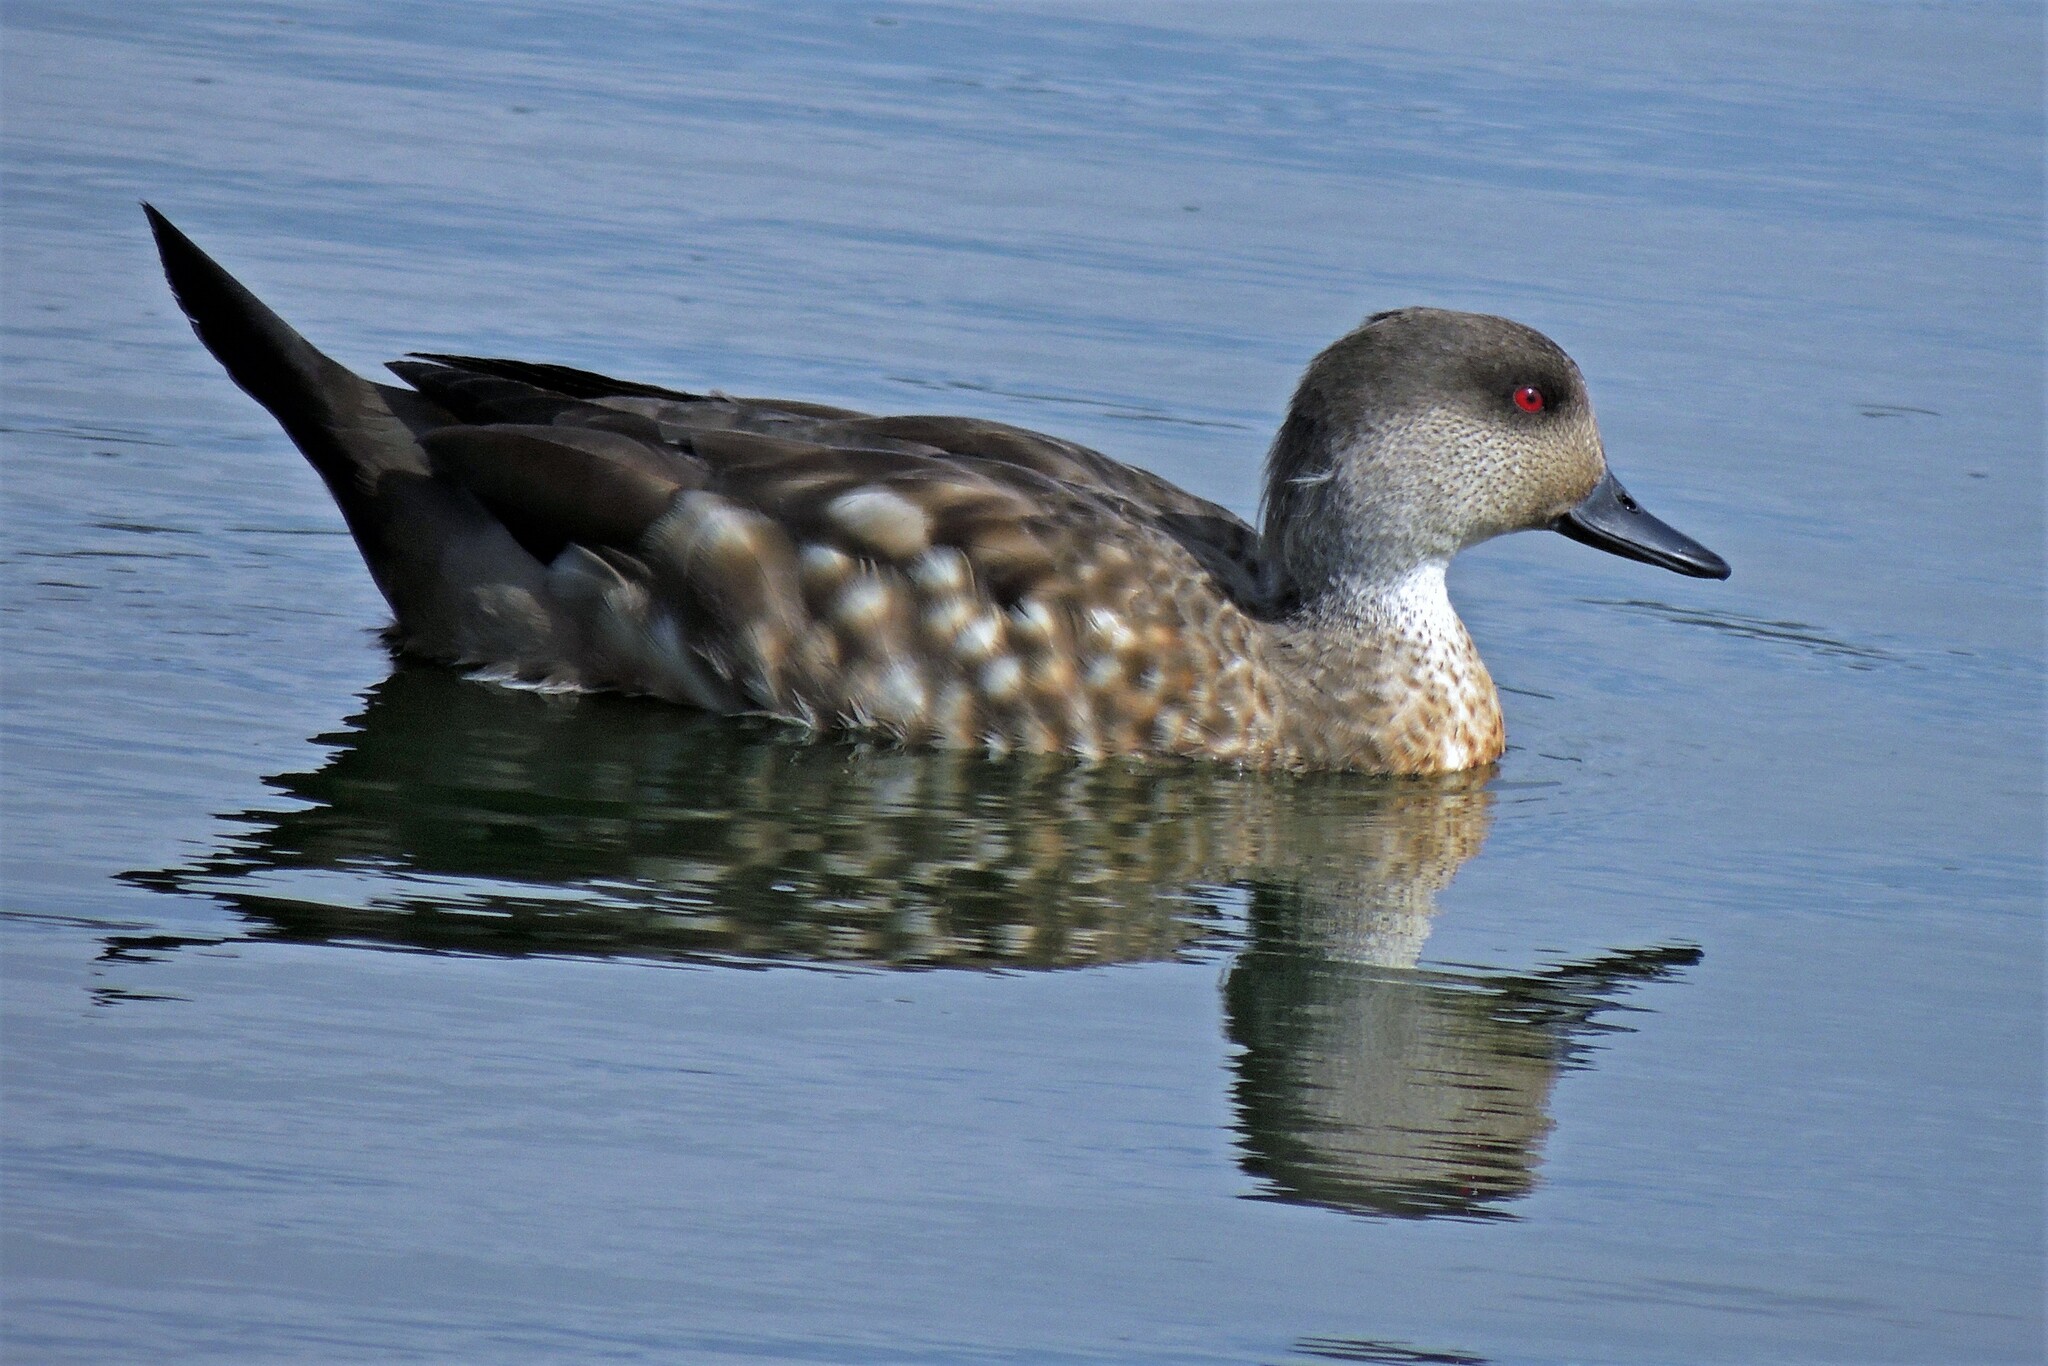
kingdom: Animalia
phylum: Chordata
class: Aves
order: Anseriformes
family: Anatidae
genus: Lophonetta
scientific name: Lophonetta specularioides
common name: Crested duck
